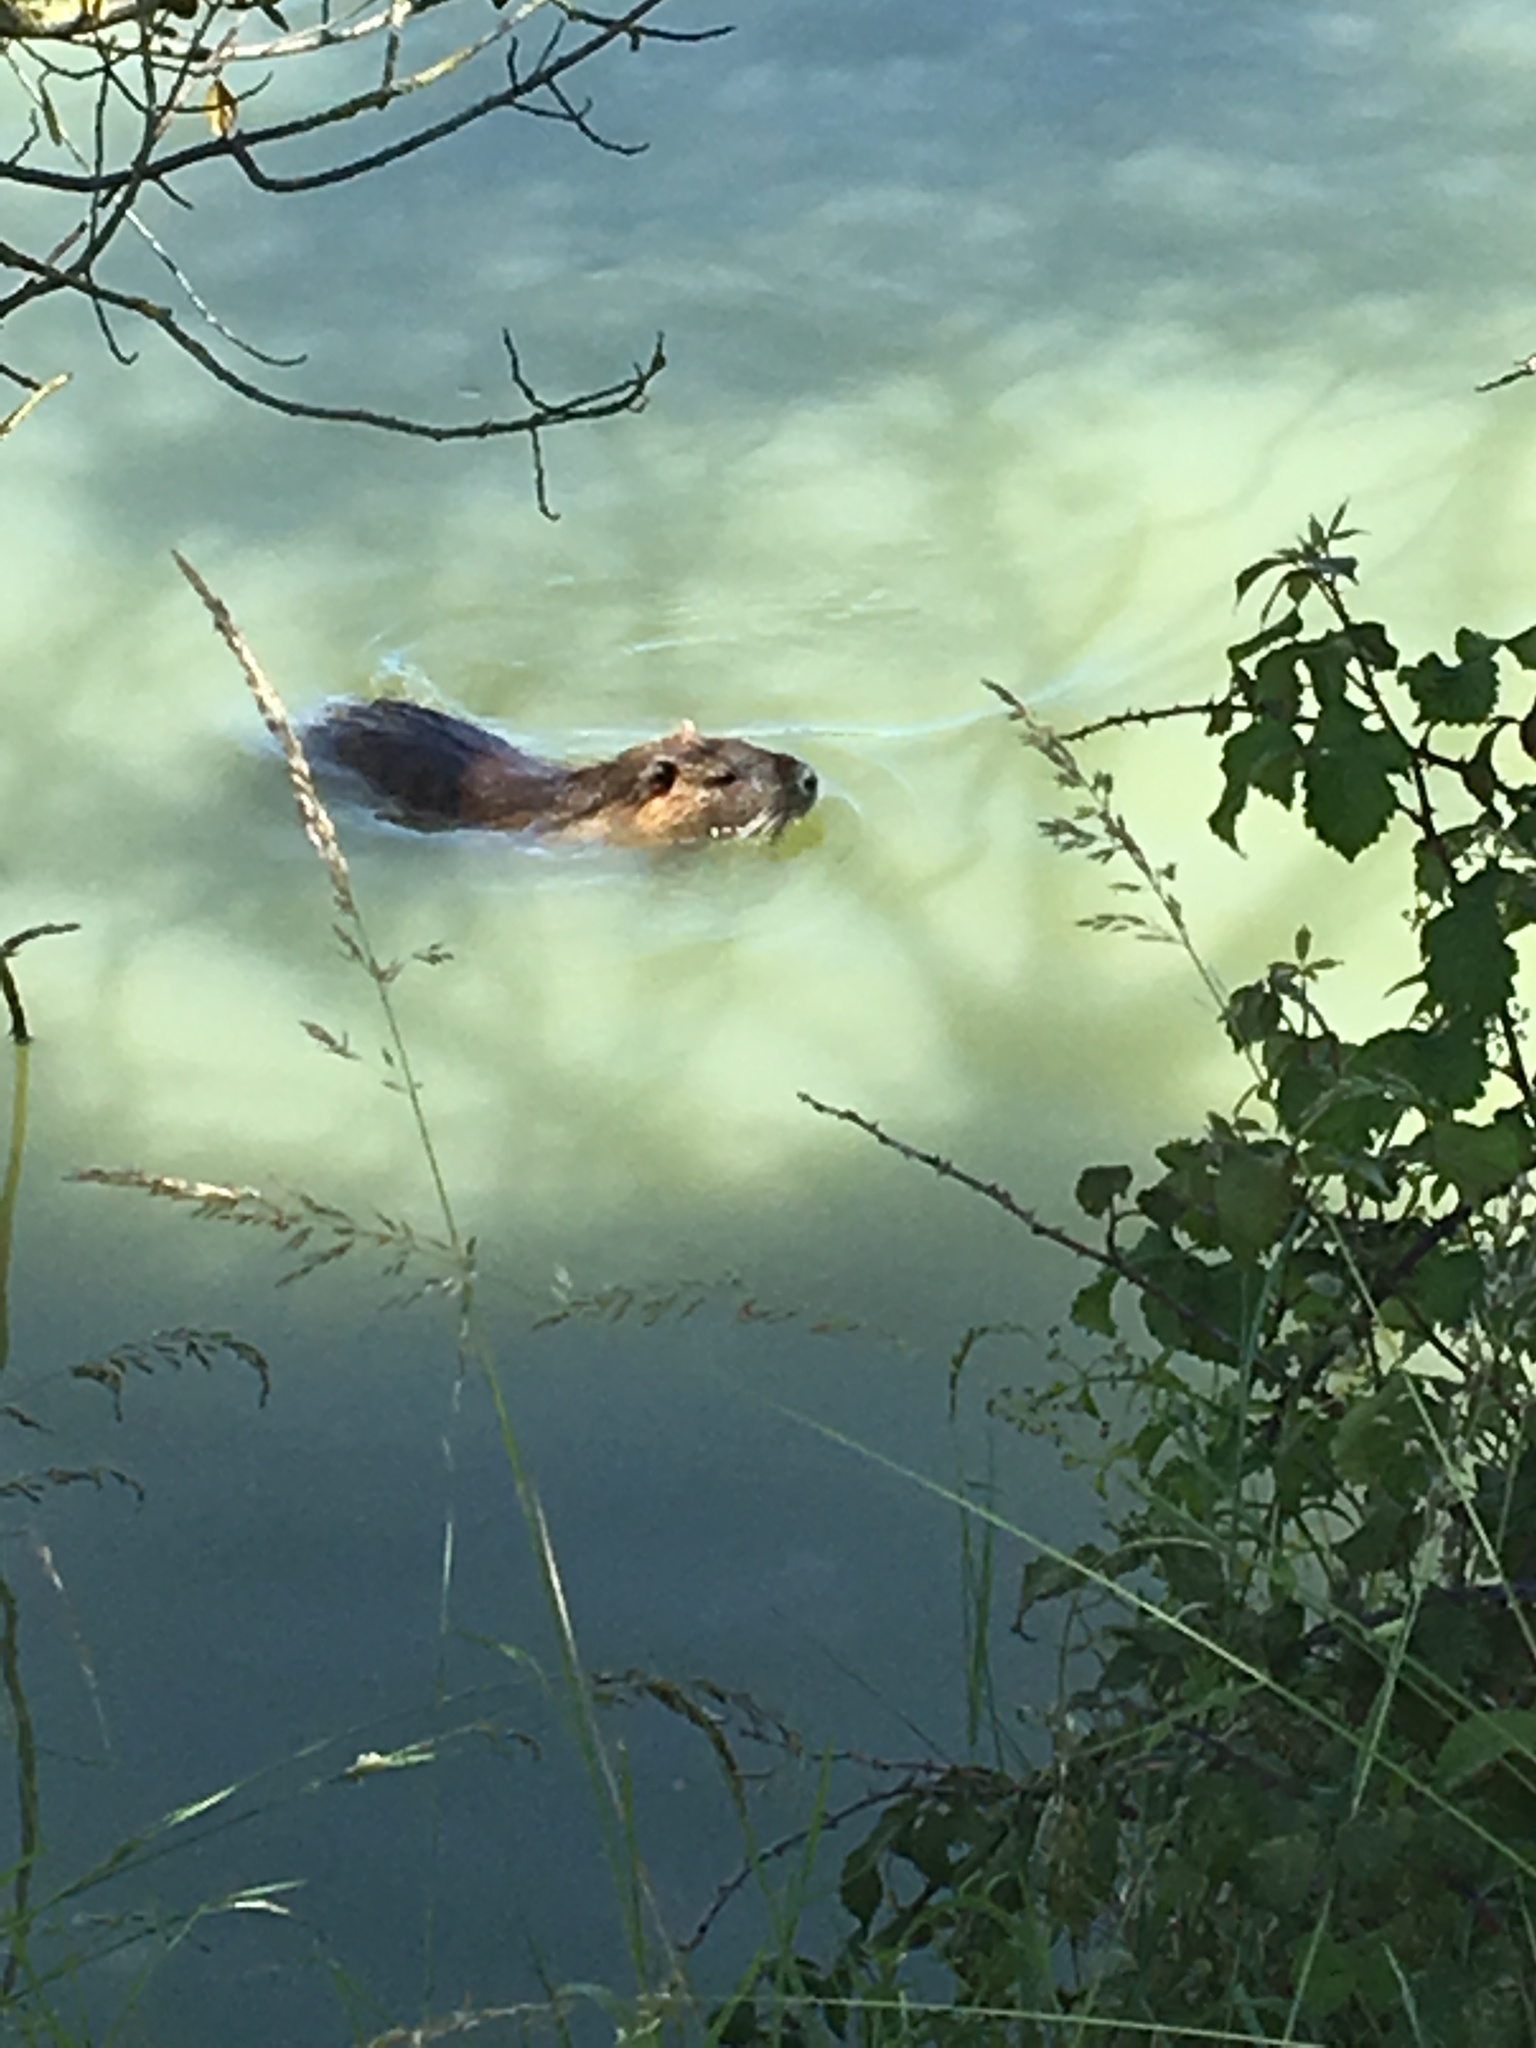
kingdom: Animalia
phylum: Chordata
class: Mammalia
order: Rodentia
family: Myocastoridae
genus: Myocastor
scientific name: Myocastor coypus
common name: Coypu
